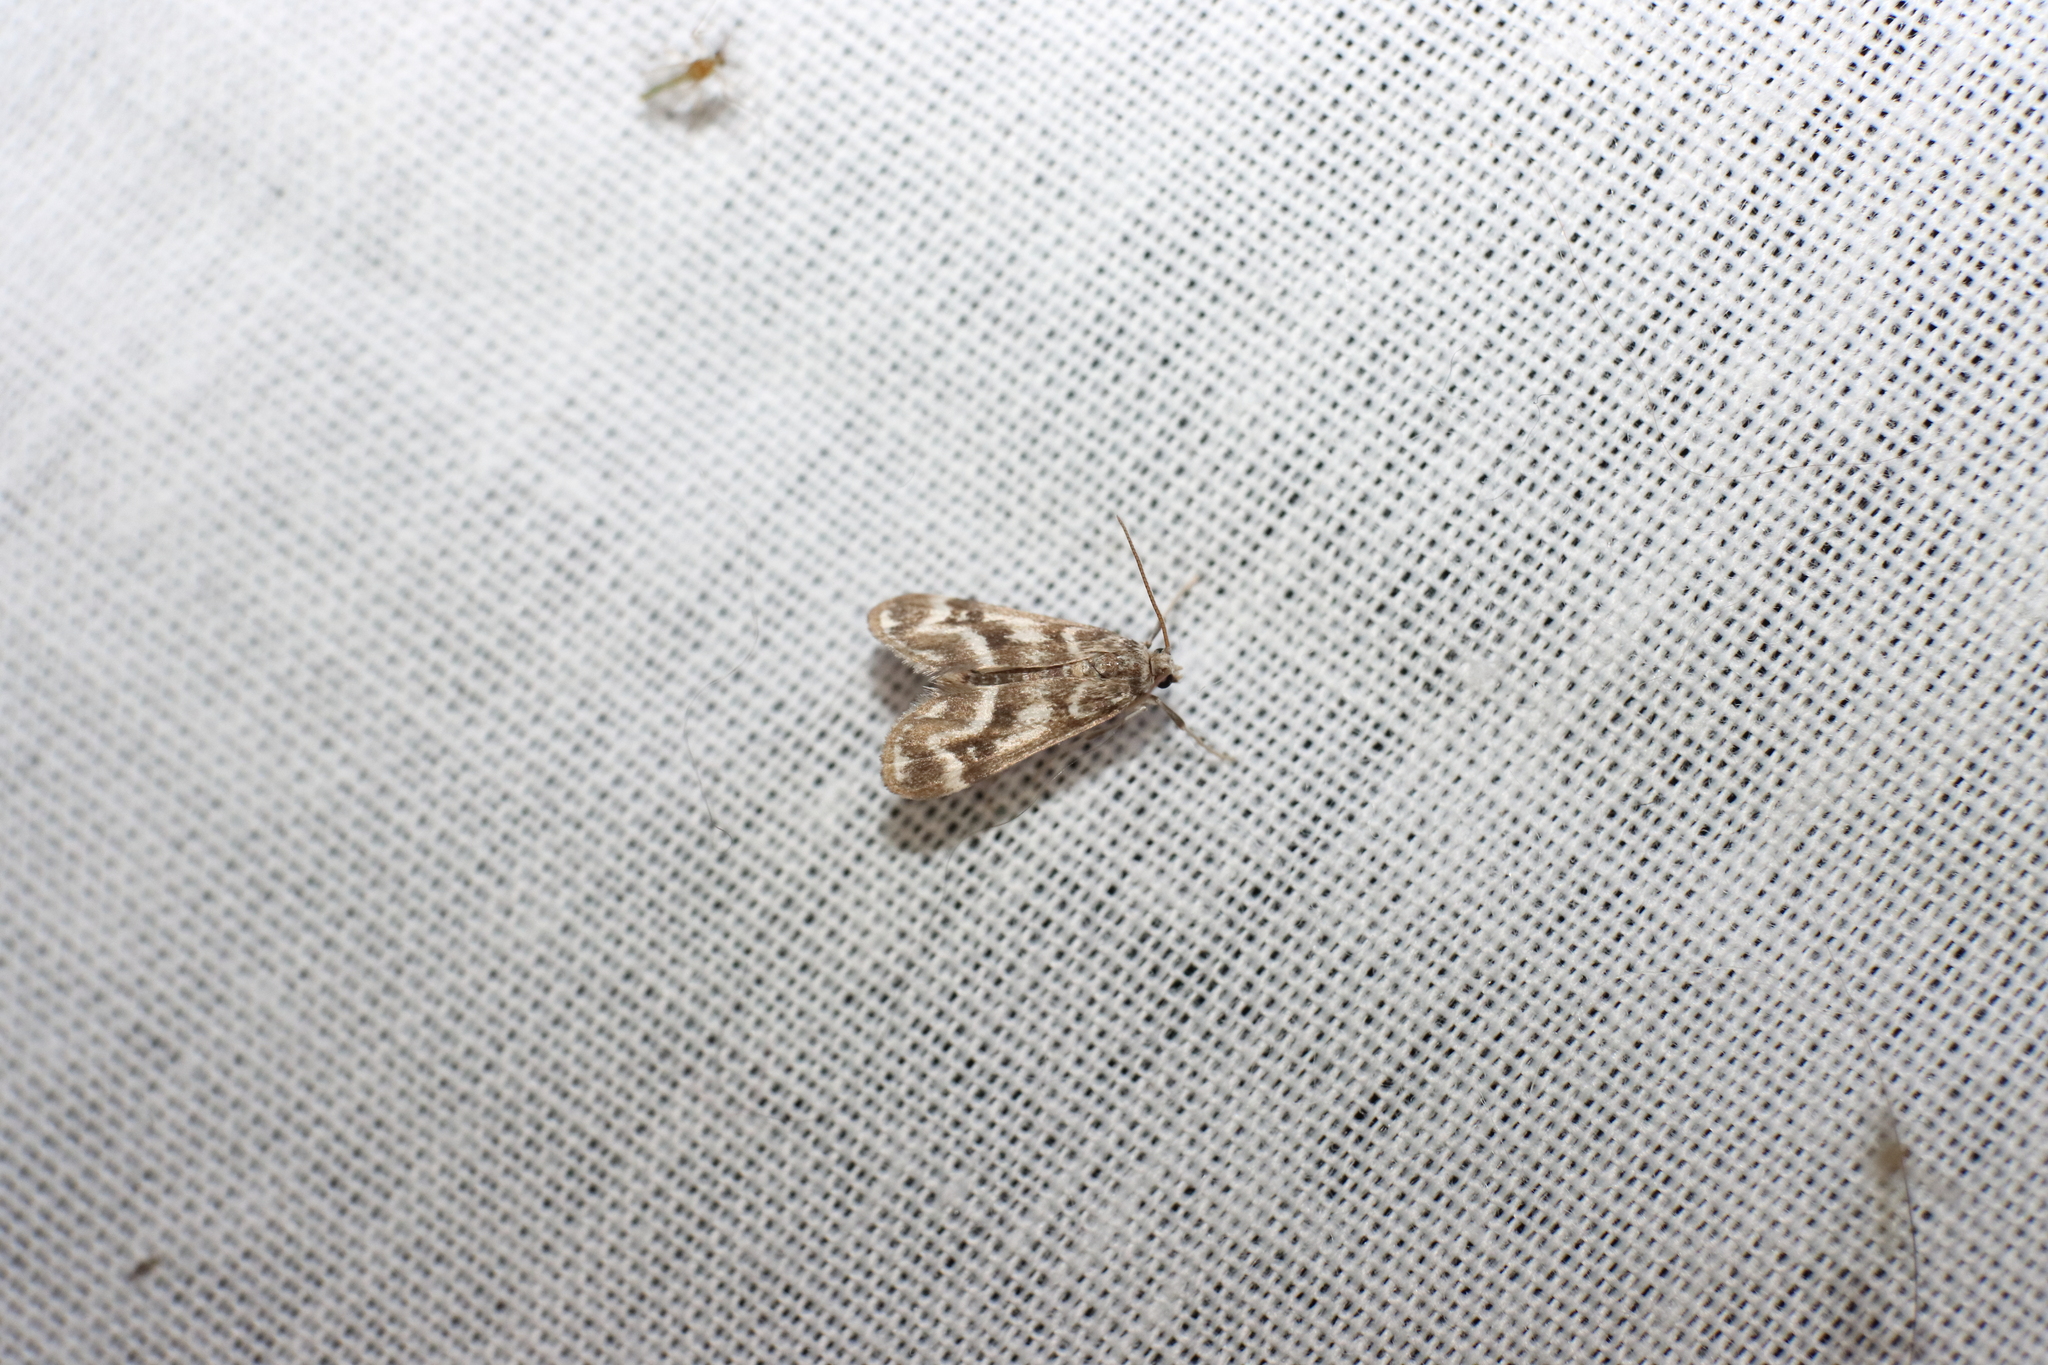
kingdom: Animalia
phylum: Arthropoda
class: Insecta
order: Lepidoptera
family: Crambidae
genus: Hygraula
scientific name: Hygraula nitens
